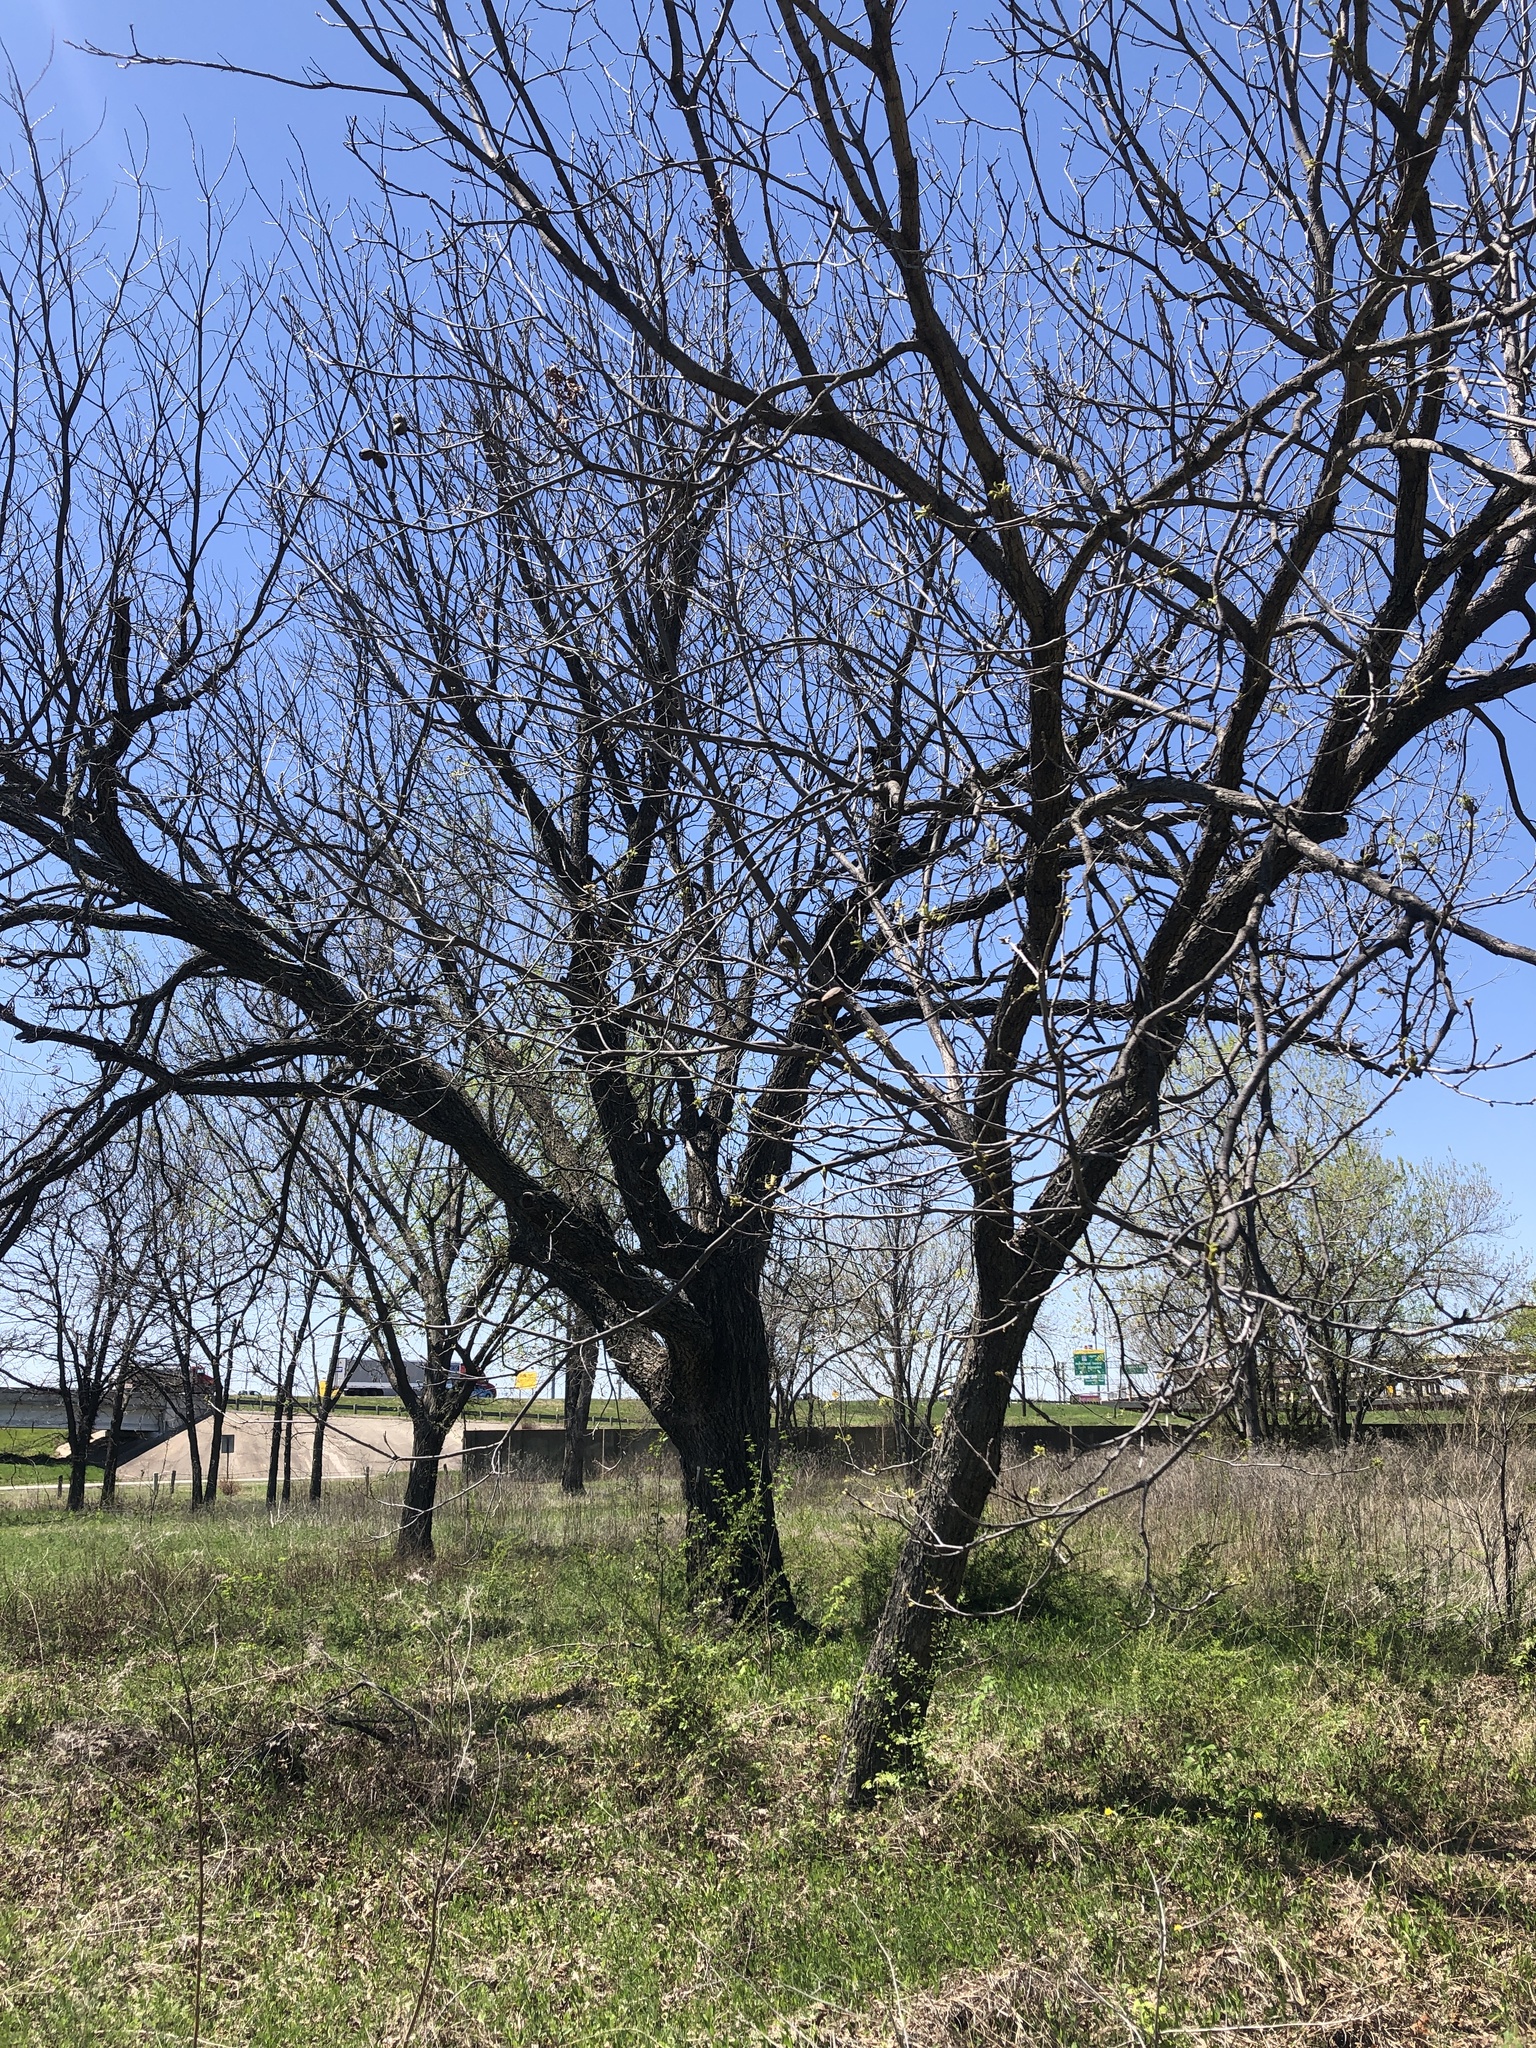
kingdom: Plantae
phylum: Tracheophyta
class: Magnoliopsida
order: Fagales
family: Juglandaceae
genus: Carya
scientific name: Carya illinoinensis
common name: Pecan
